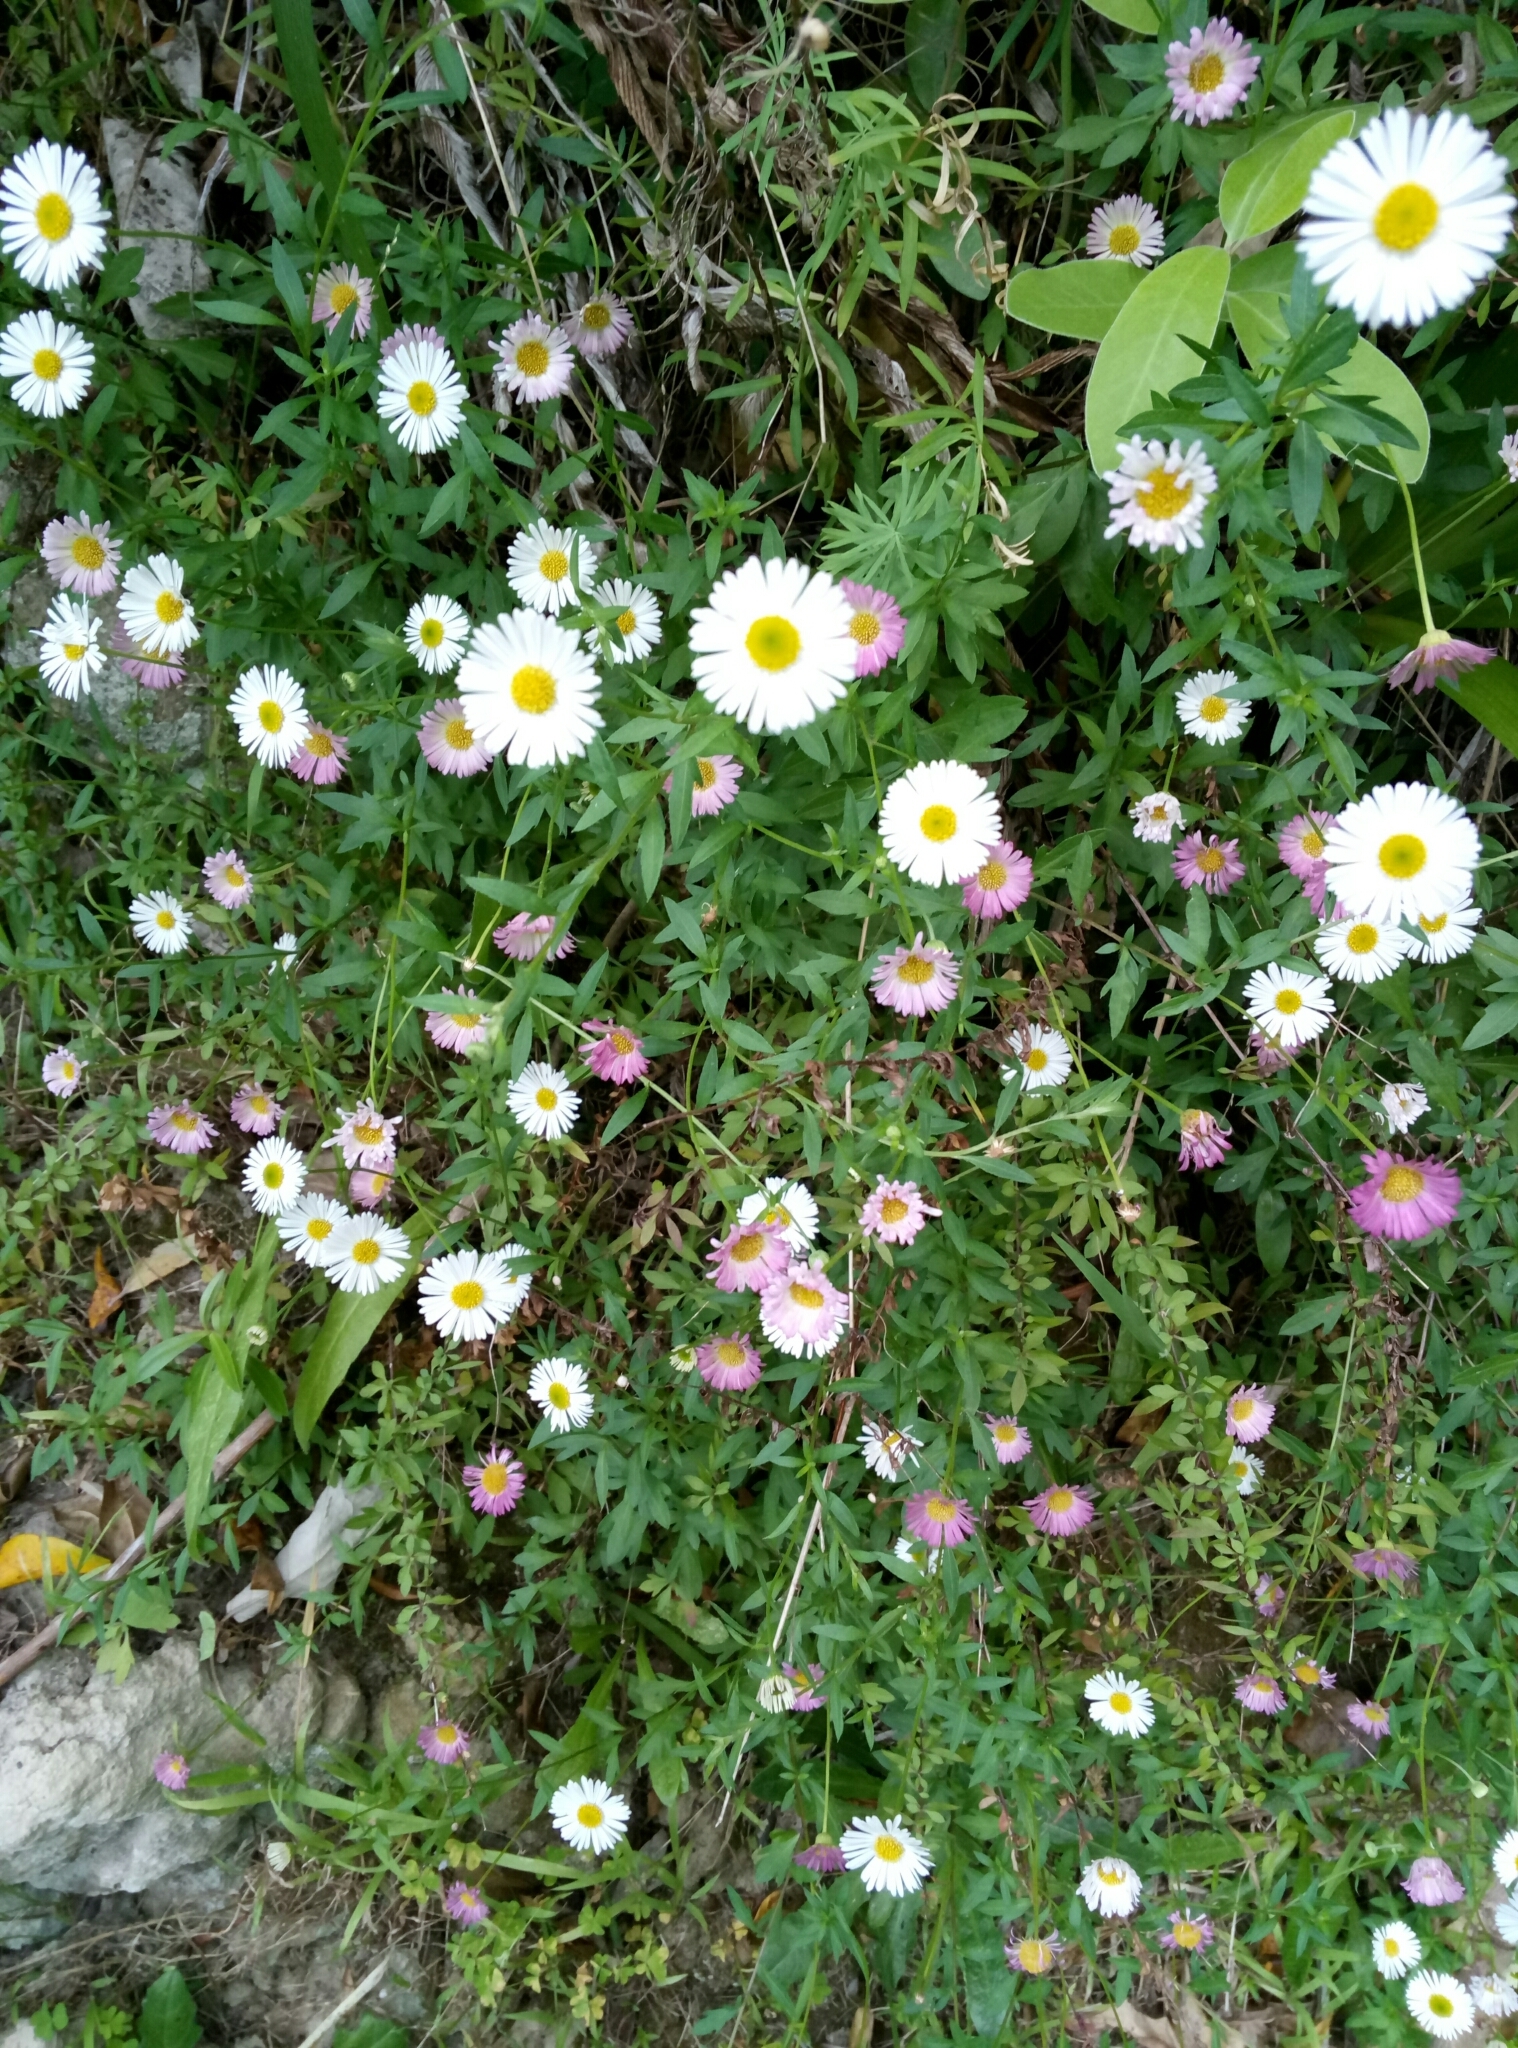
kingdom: Plantae
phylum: Tracheophyta
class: Magnoliopsida
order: Asterales
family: Asteraceae
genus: Erigeron
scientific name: Erigeron karvinskianus
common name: Mexican fleabane
